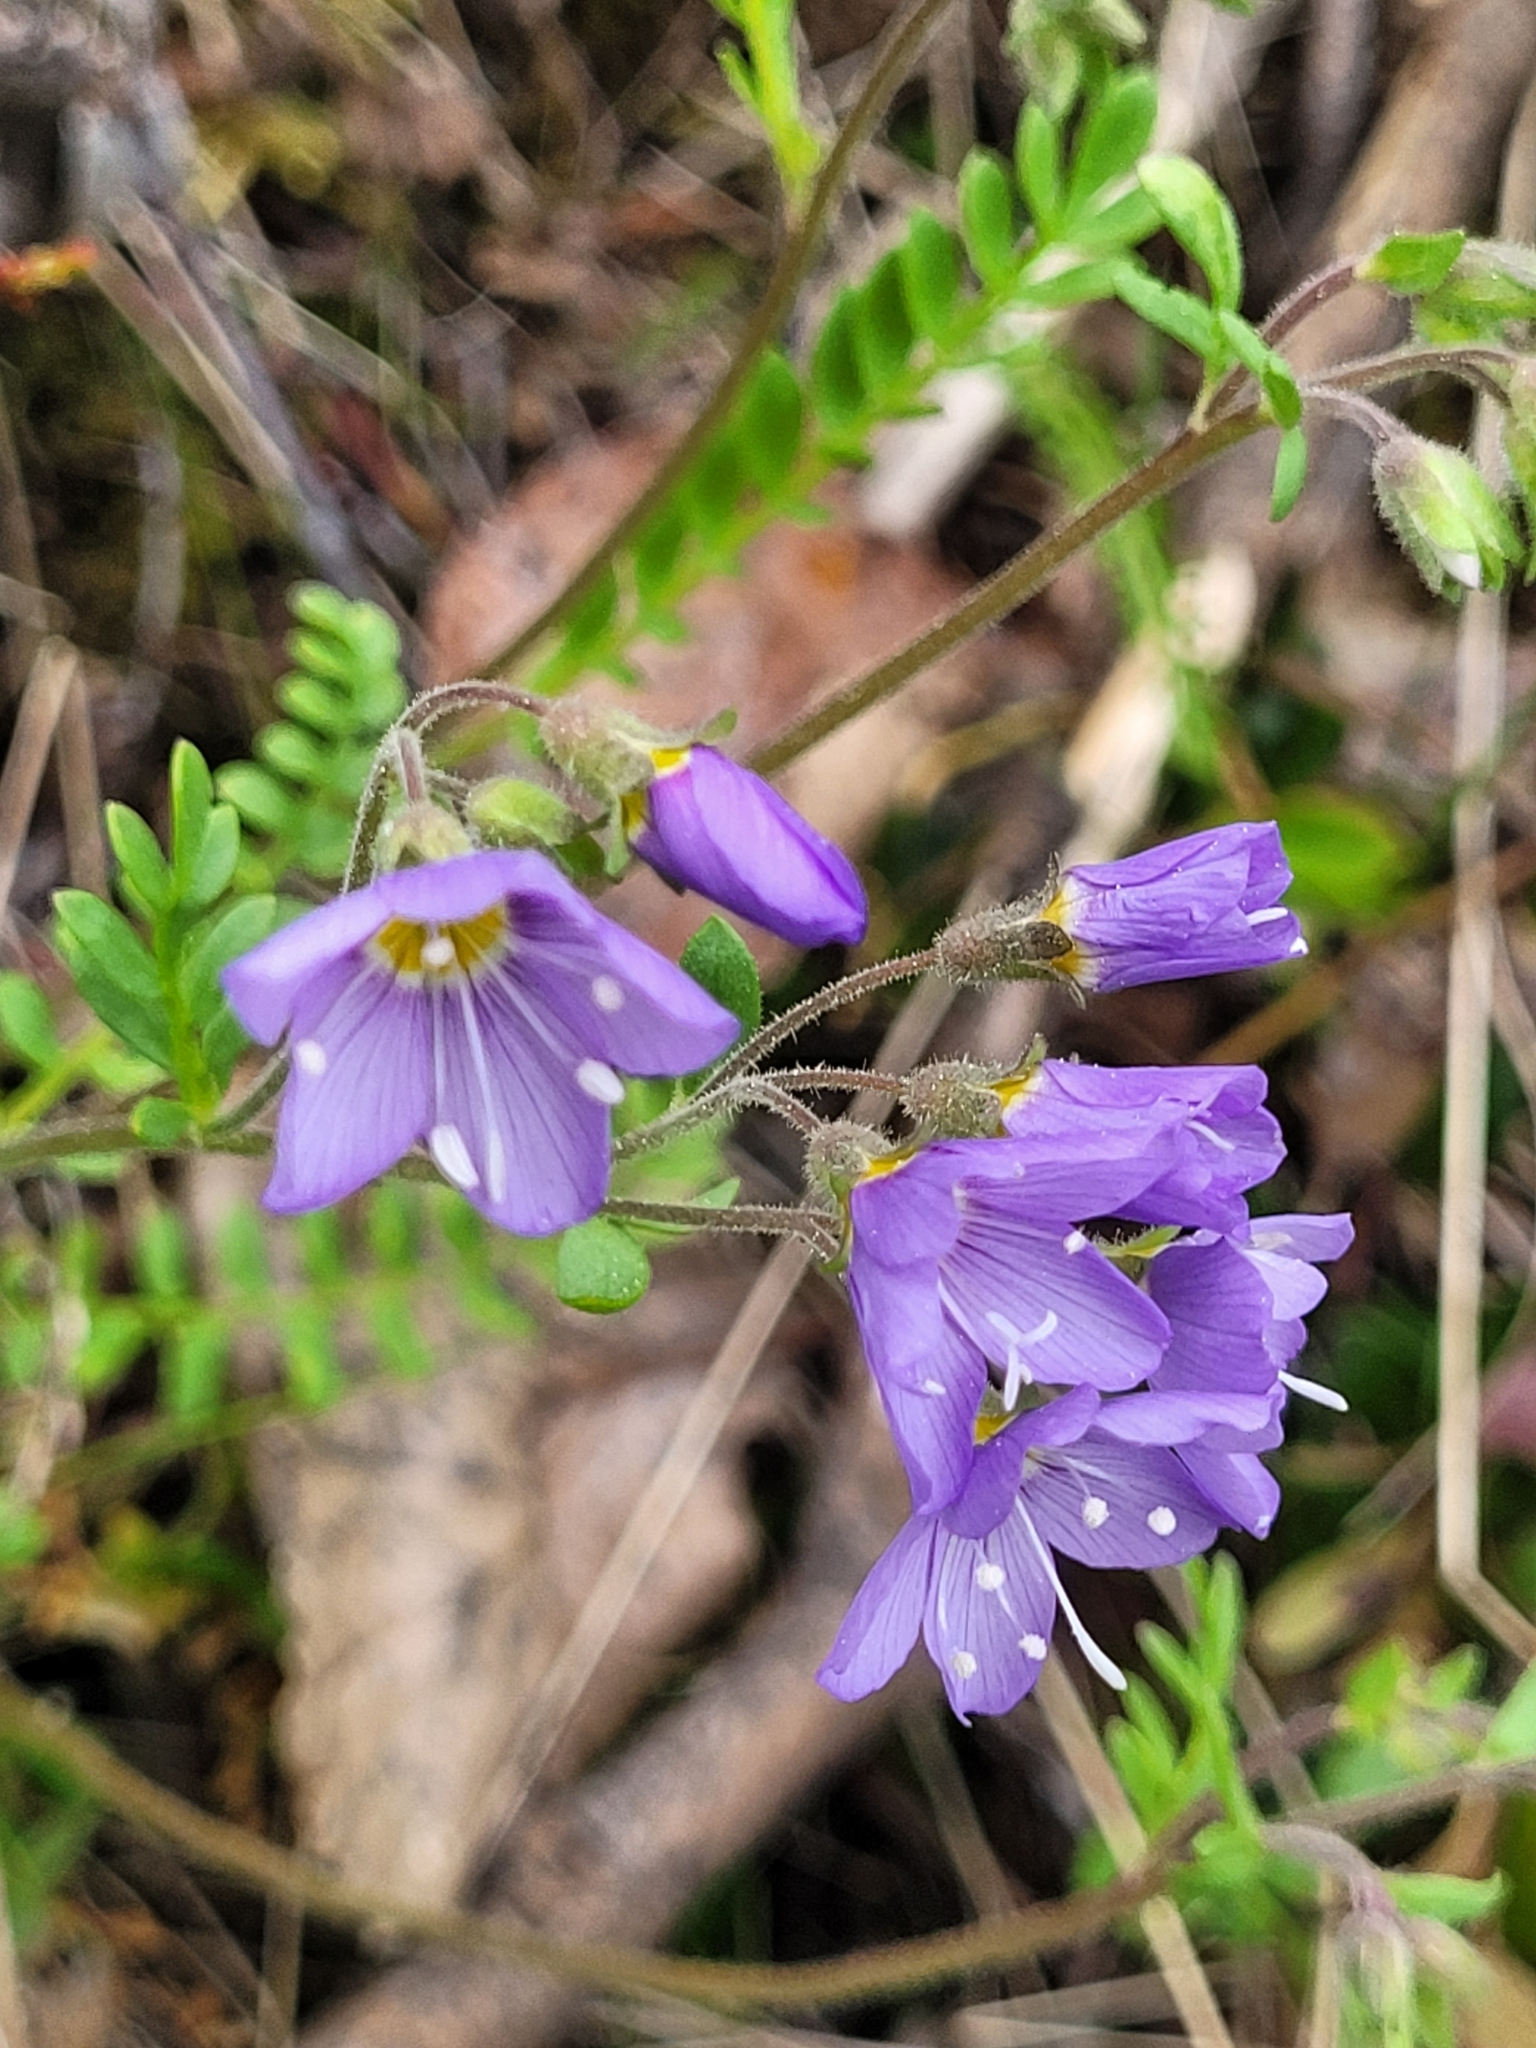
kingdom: Plantae
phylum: Tracheophyta
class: Magnoliopsida
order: Ericales
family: Polemoniaceae
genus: Polemonium
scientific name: Polemonium pulcherrimum
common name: Short jacob's-ladder
